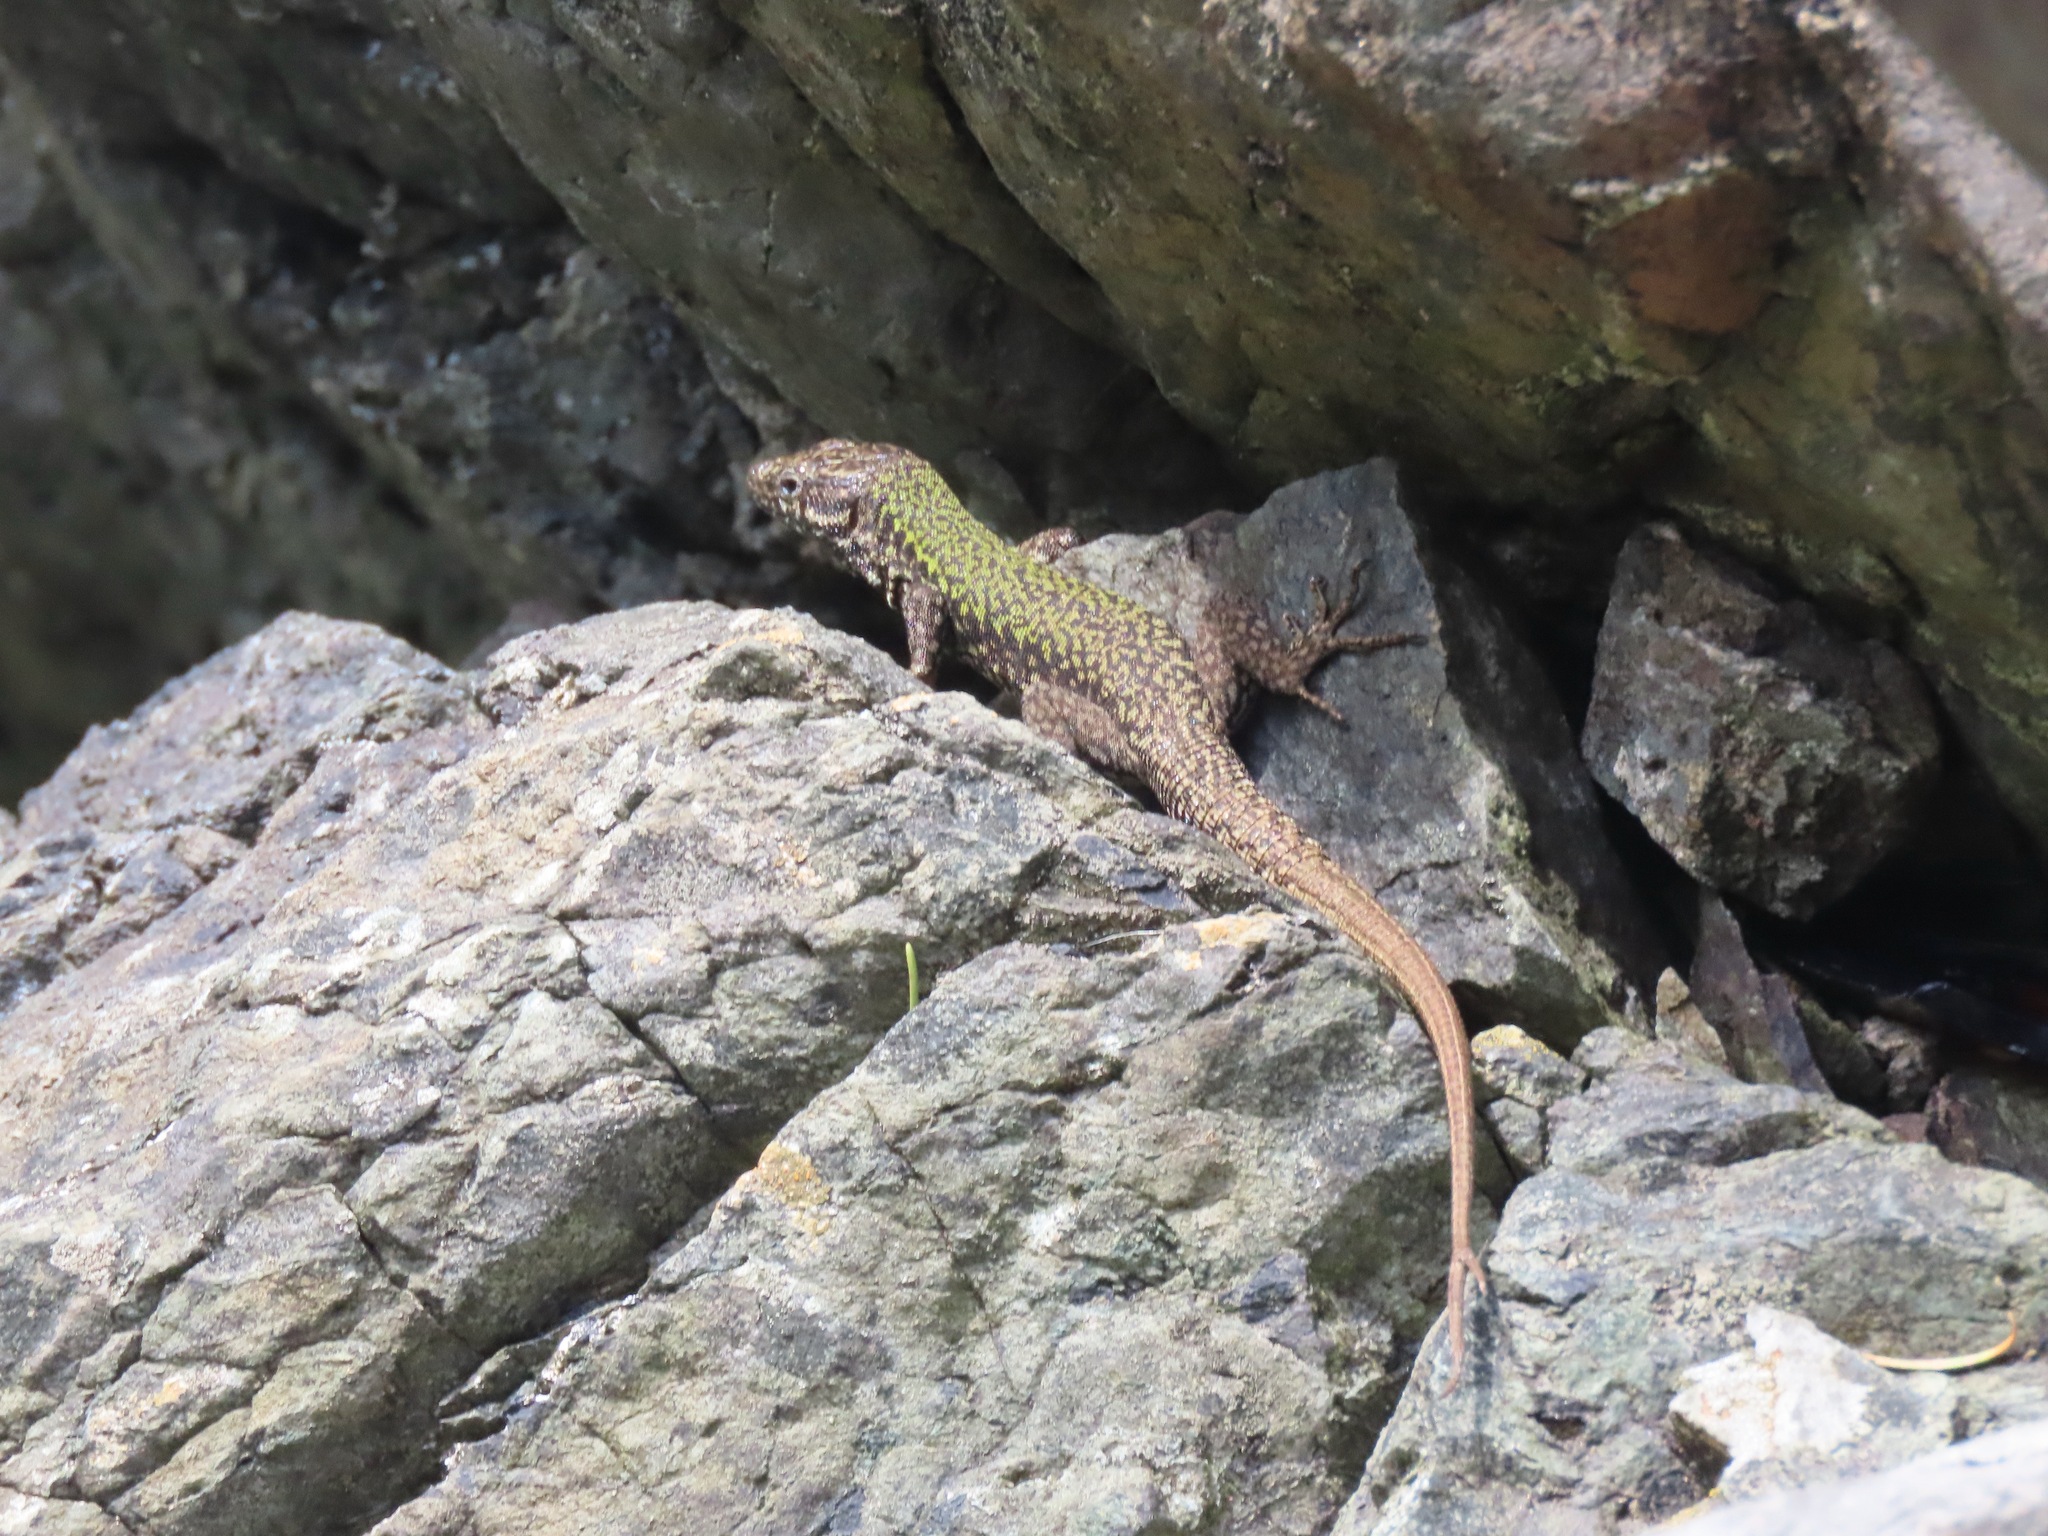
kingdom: Animalia
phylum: Chordata
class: Squamata
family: Lacertidae
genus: Podarcis
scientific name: Podarcis muralis
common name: Common wall lizard
